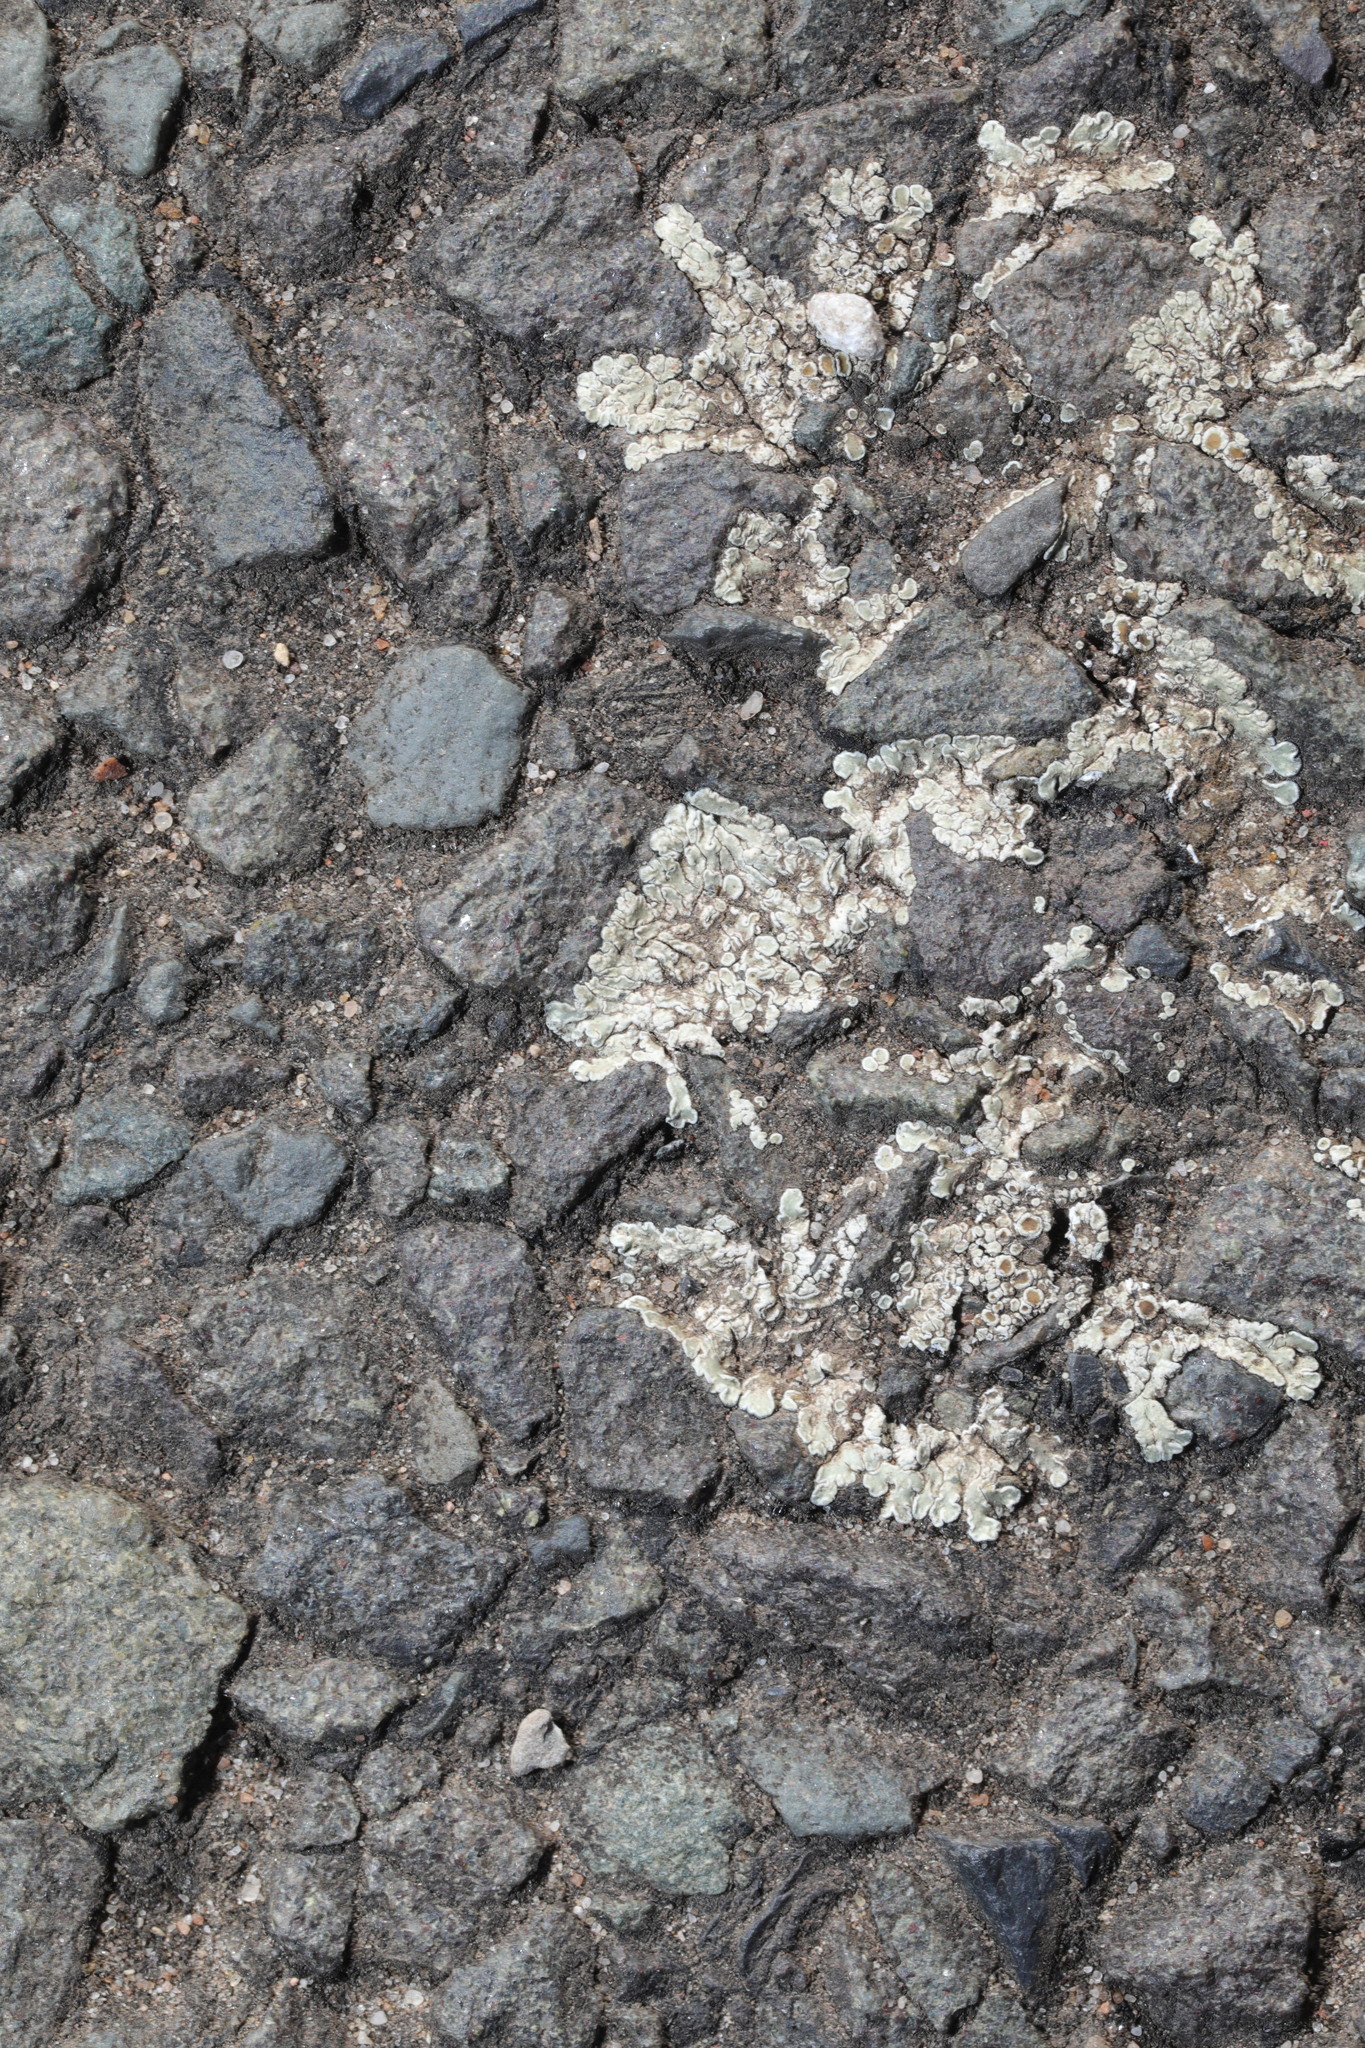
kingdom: Fungi
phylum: Ascomycota
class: Lecanoromycetes
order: Lecanorales
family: Lecanoraceae
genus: Protoparmeliopsis
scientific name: Protoparmeliopsis muralis
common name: Stonewall rim lichen
